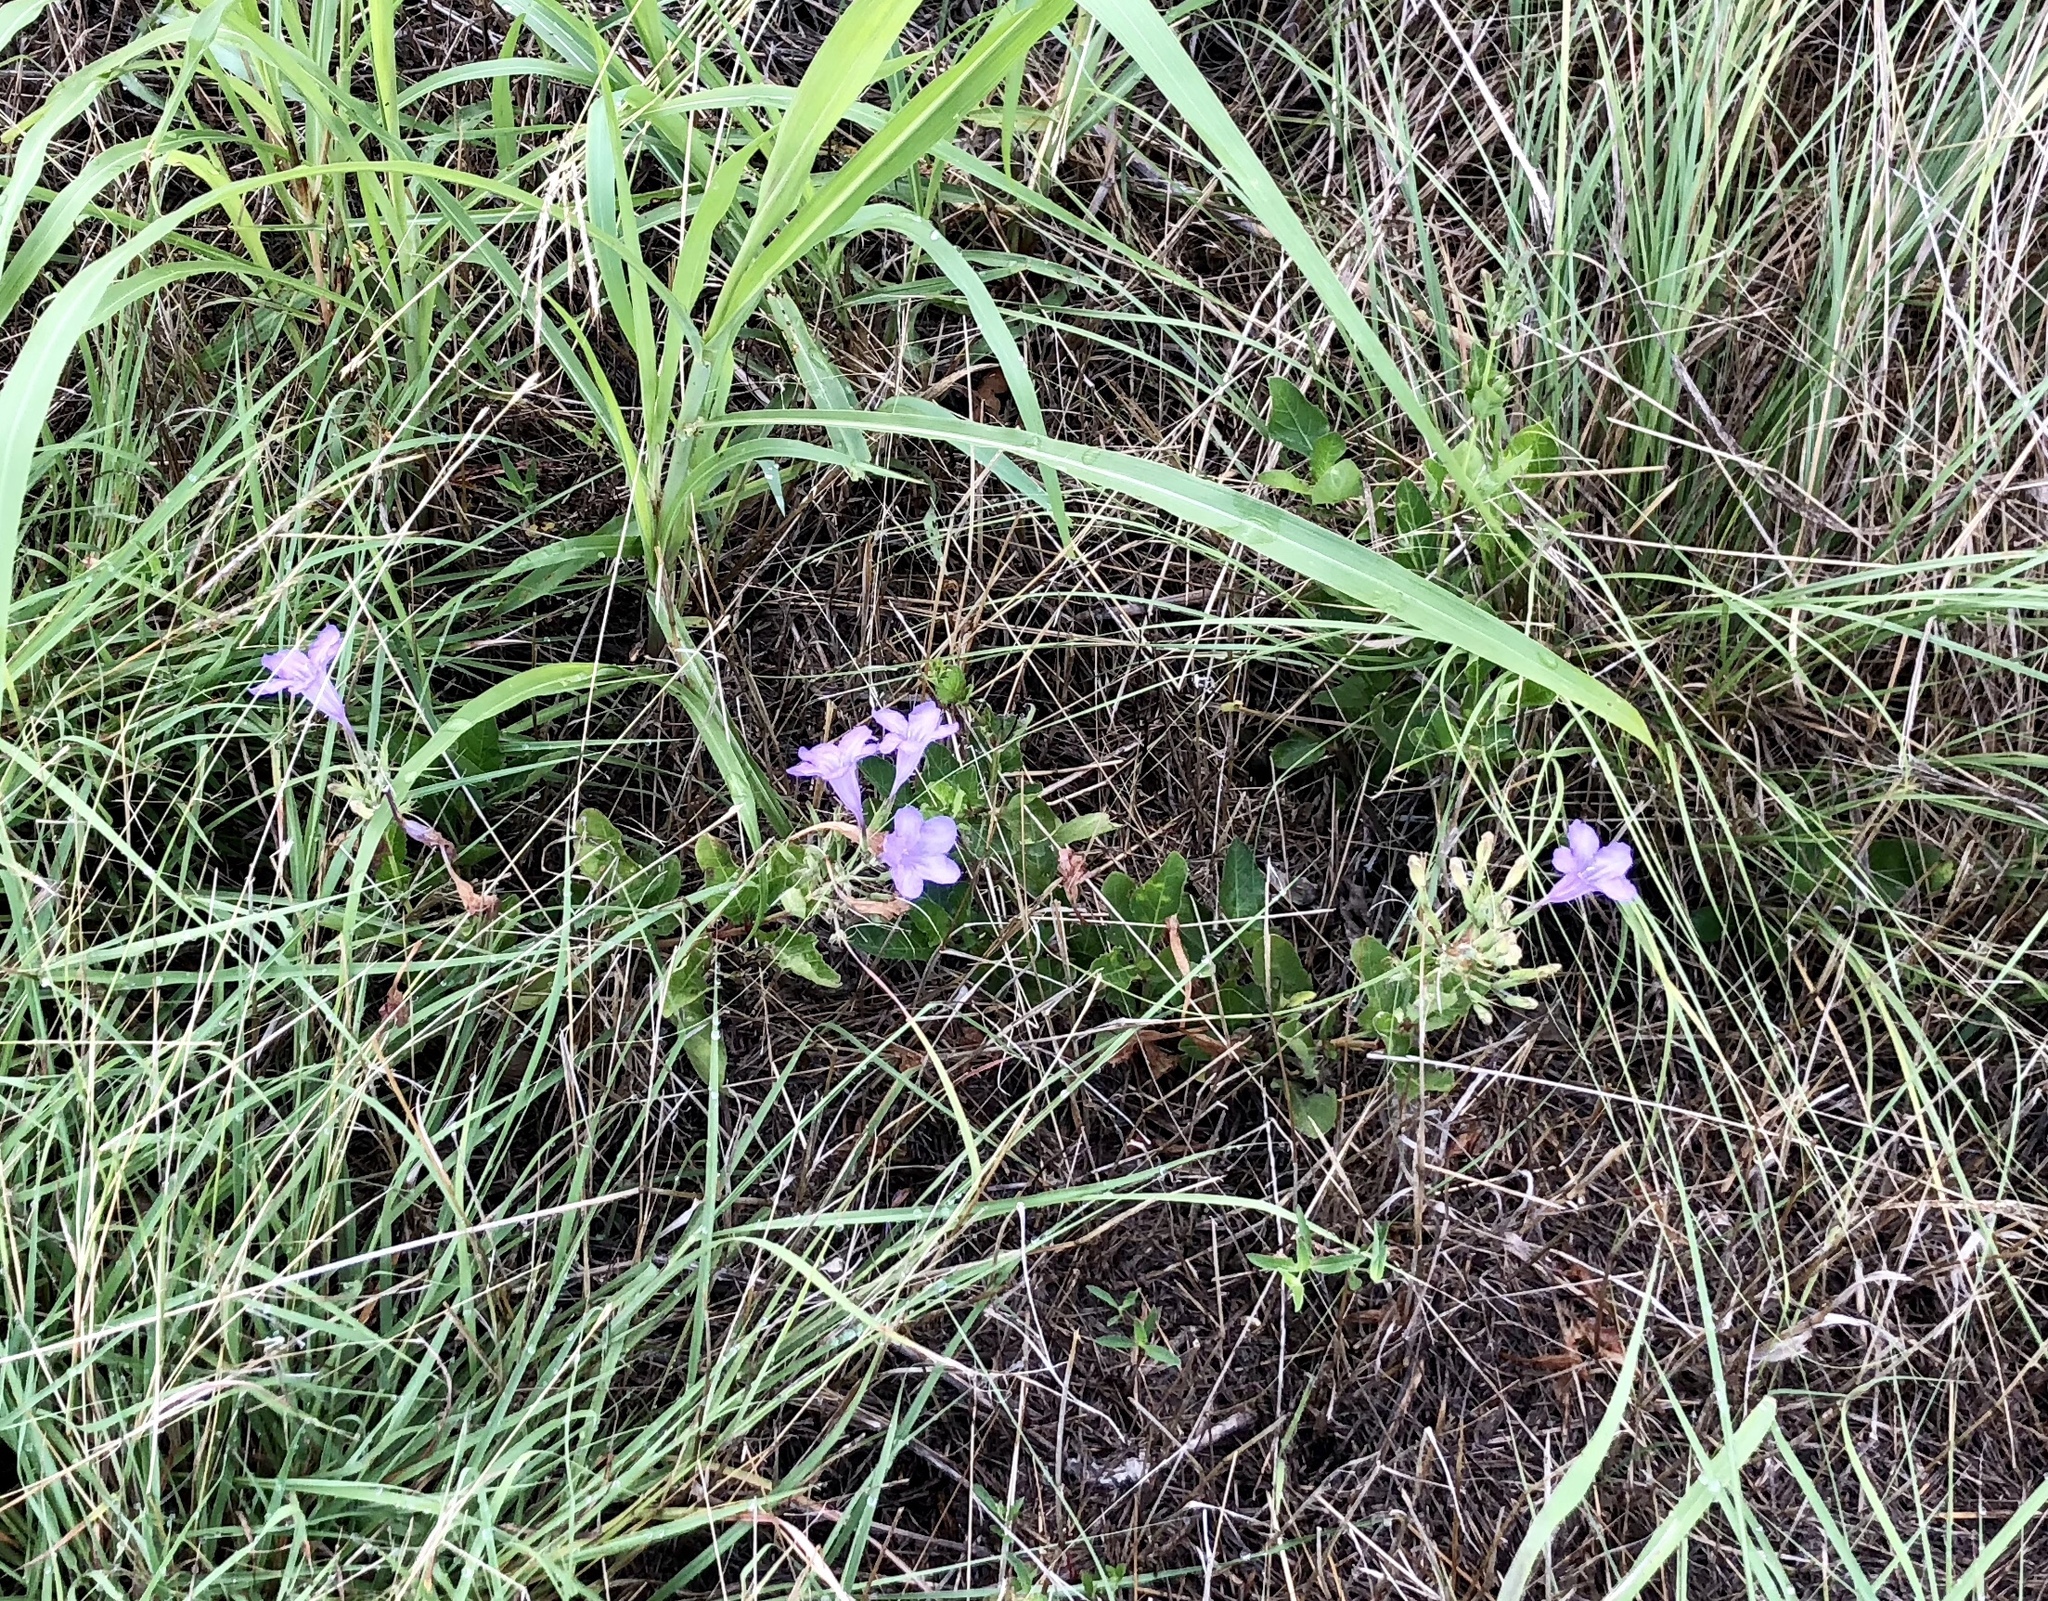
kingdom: Plantae
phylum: Tracheophyta
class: Magnoliopsida
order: Lamiales
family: Acanthaceae
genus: Ruellia
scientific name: Ruellia ciliatiflora
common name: Hairyflower wild petunia
